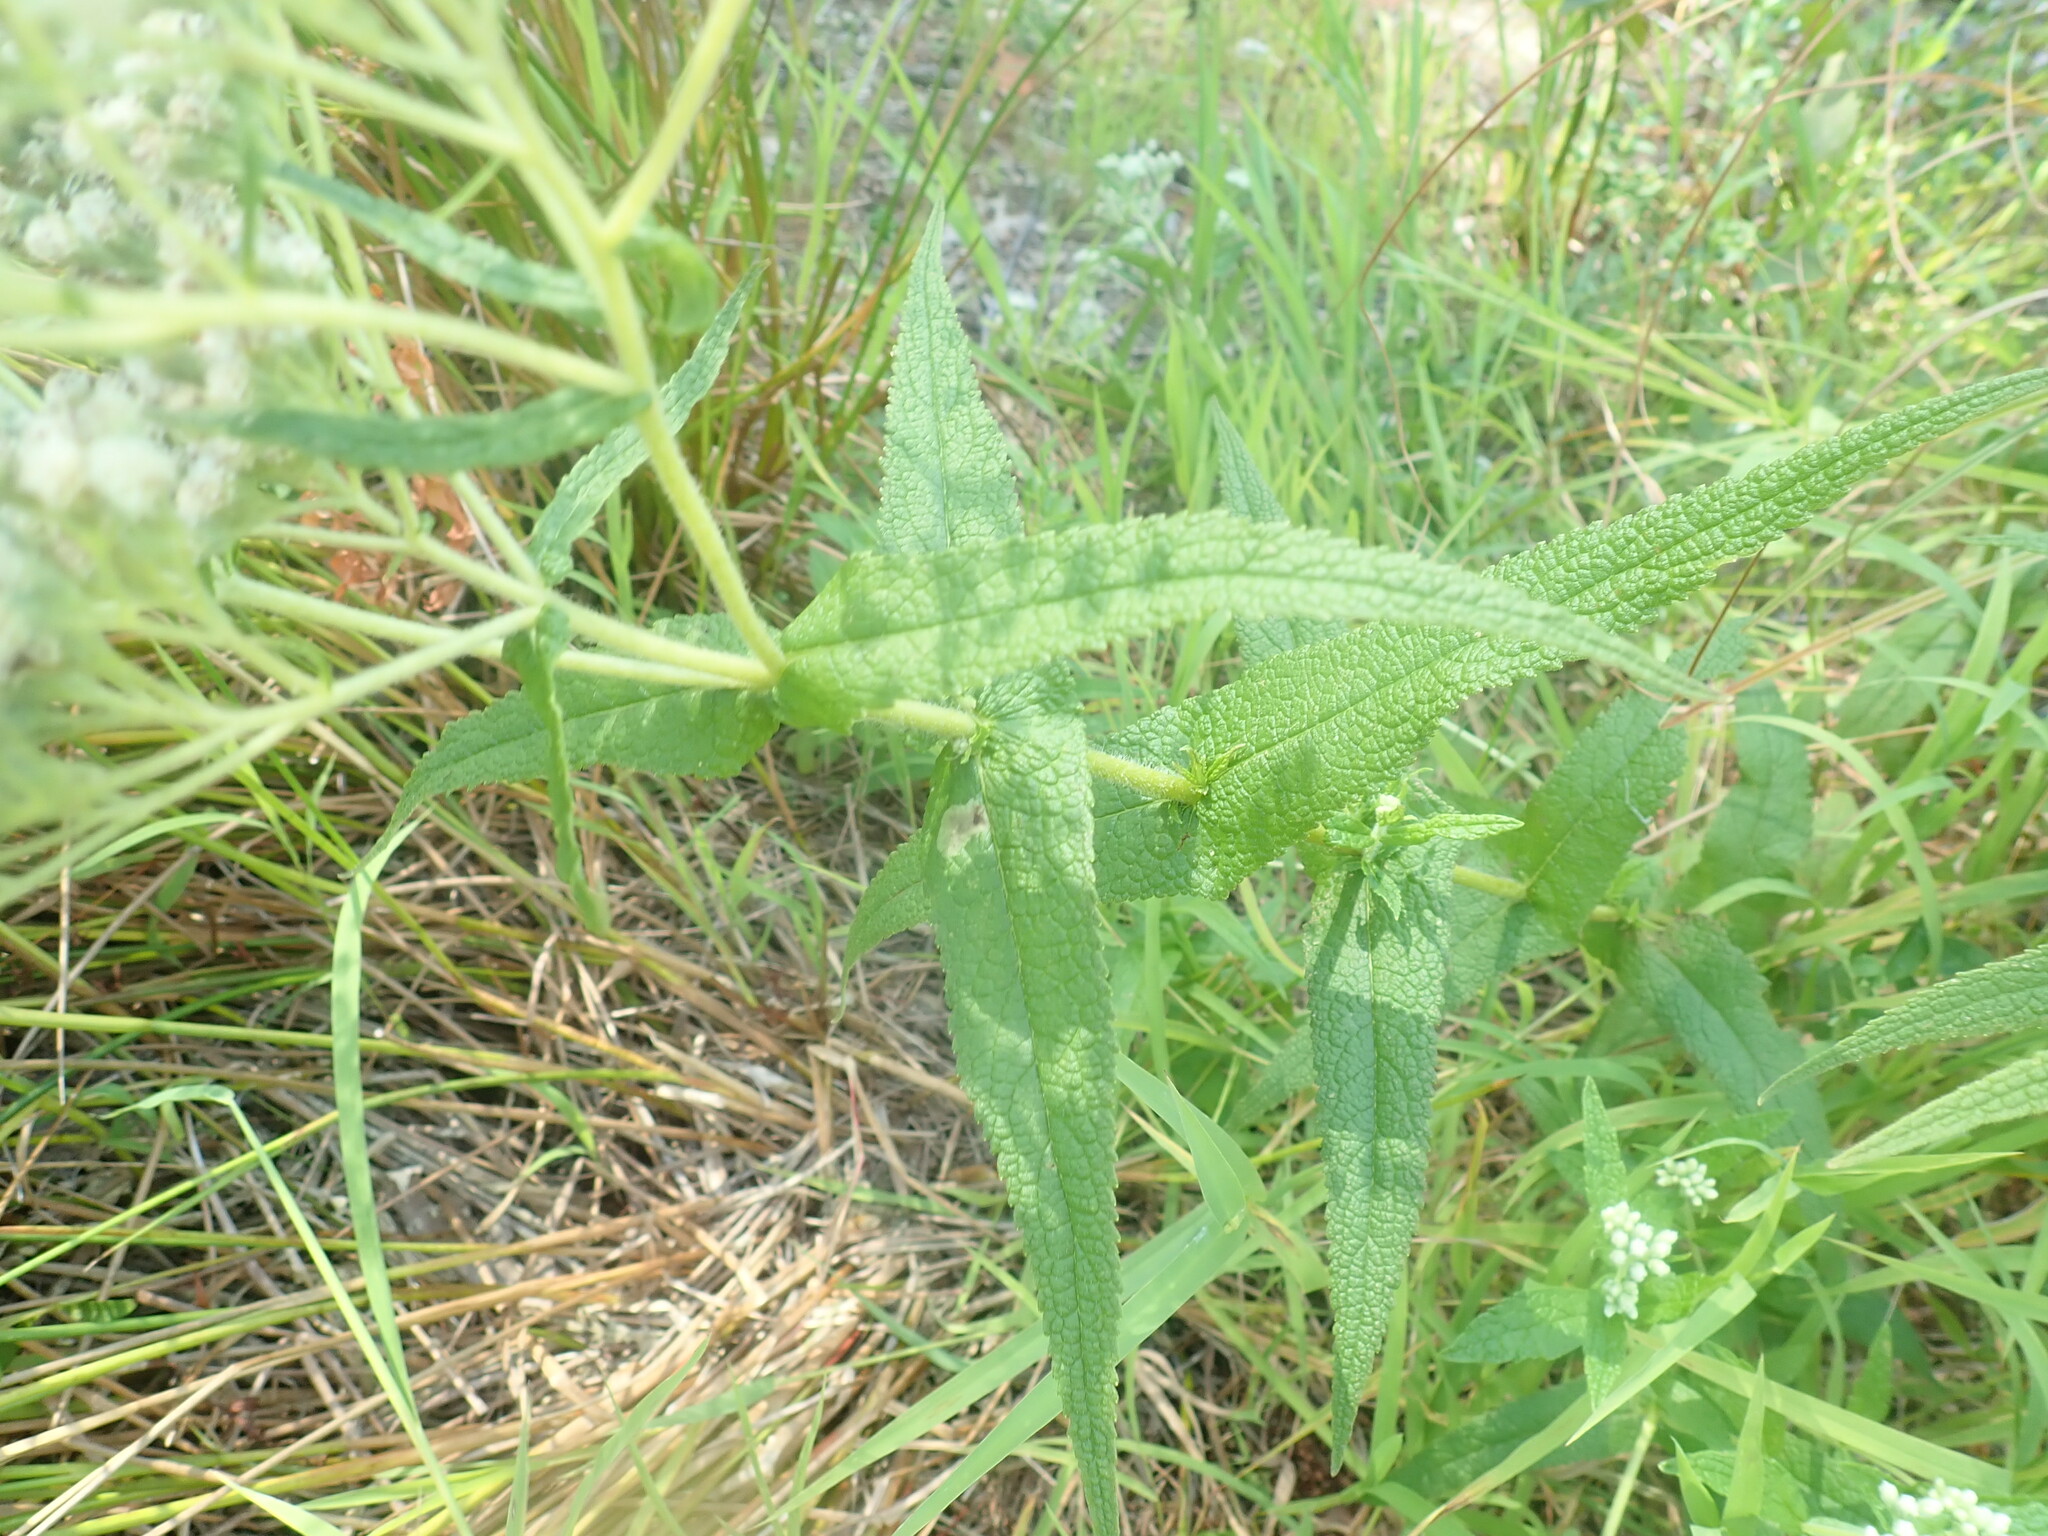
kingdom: Plantae
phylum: Tracheophyta
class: Magnoliopsida
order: Asterales
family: Asteraceae
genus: Eupatorium
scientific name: Eupatorium perfoliatum
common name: Boneset
